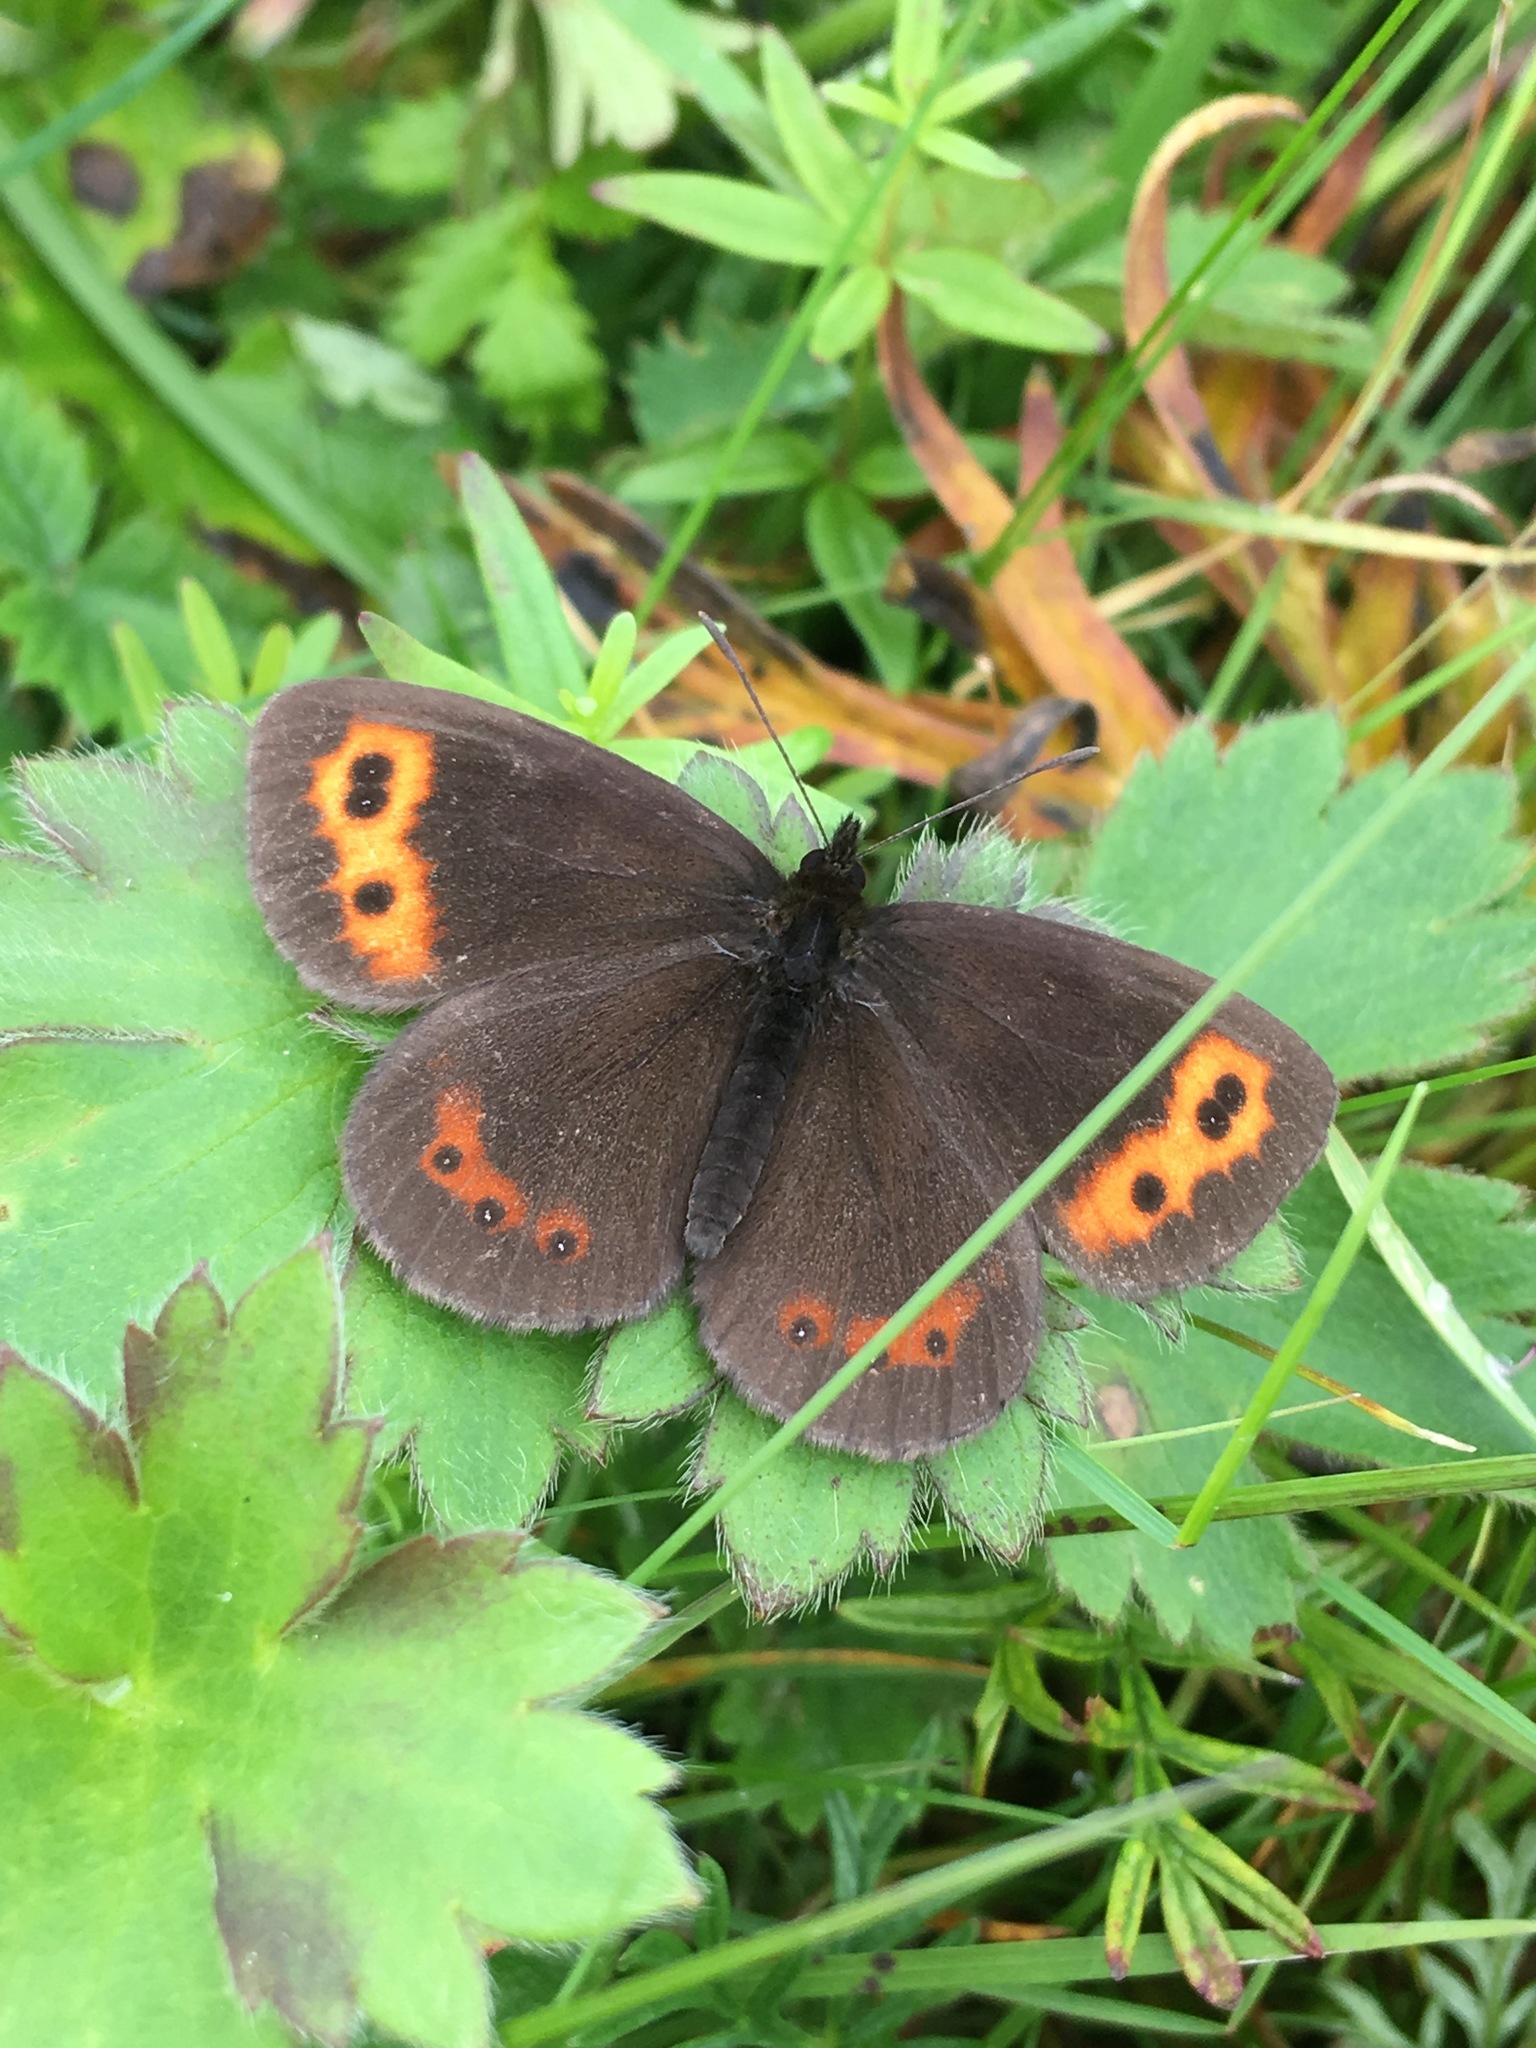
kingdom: Animalia
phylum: Arthropoda
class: Insecta
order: Lepidoptera
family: Nymphalidae
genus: Erebia
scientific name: Erebia neriene
